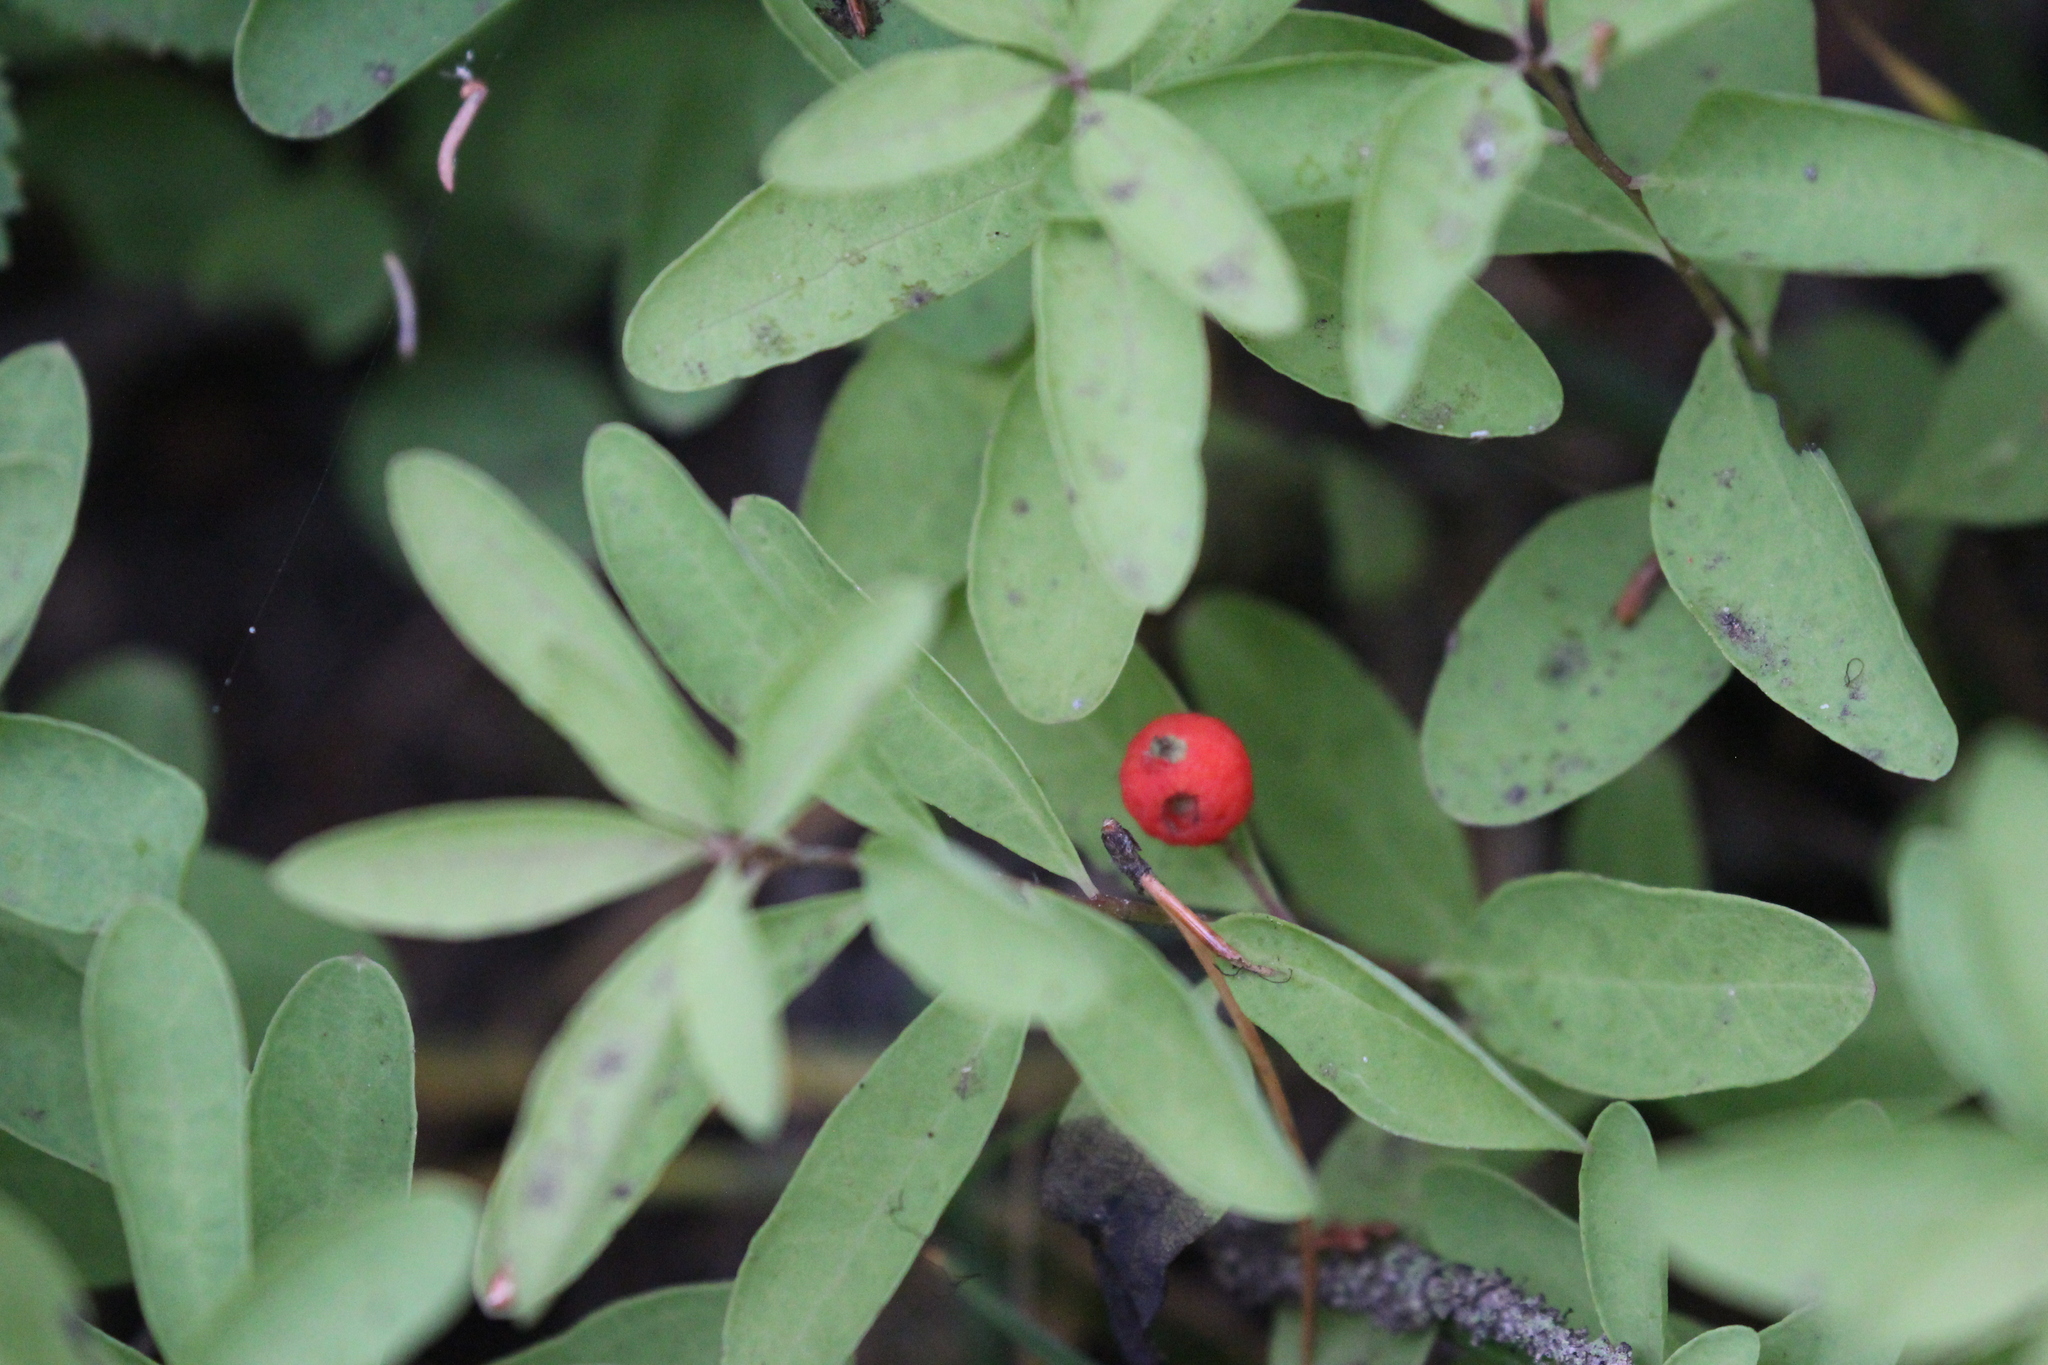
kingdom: Plantae
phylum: Tracheophyta
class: Magnoliopsida
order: Santalales
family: Comandraceae
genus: Geocaulon
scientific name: Geocaulon lividum
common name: Earthberry
